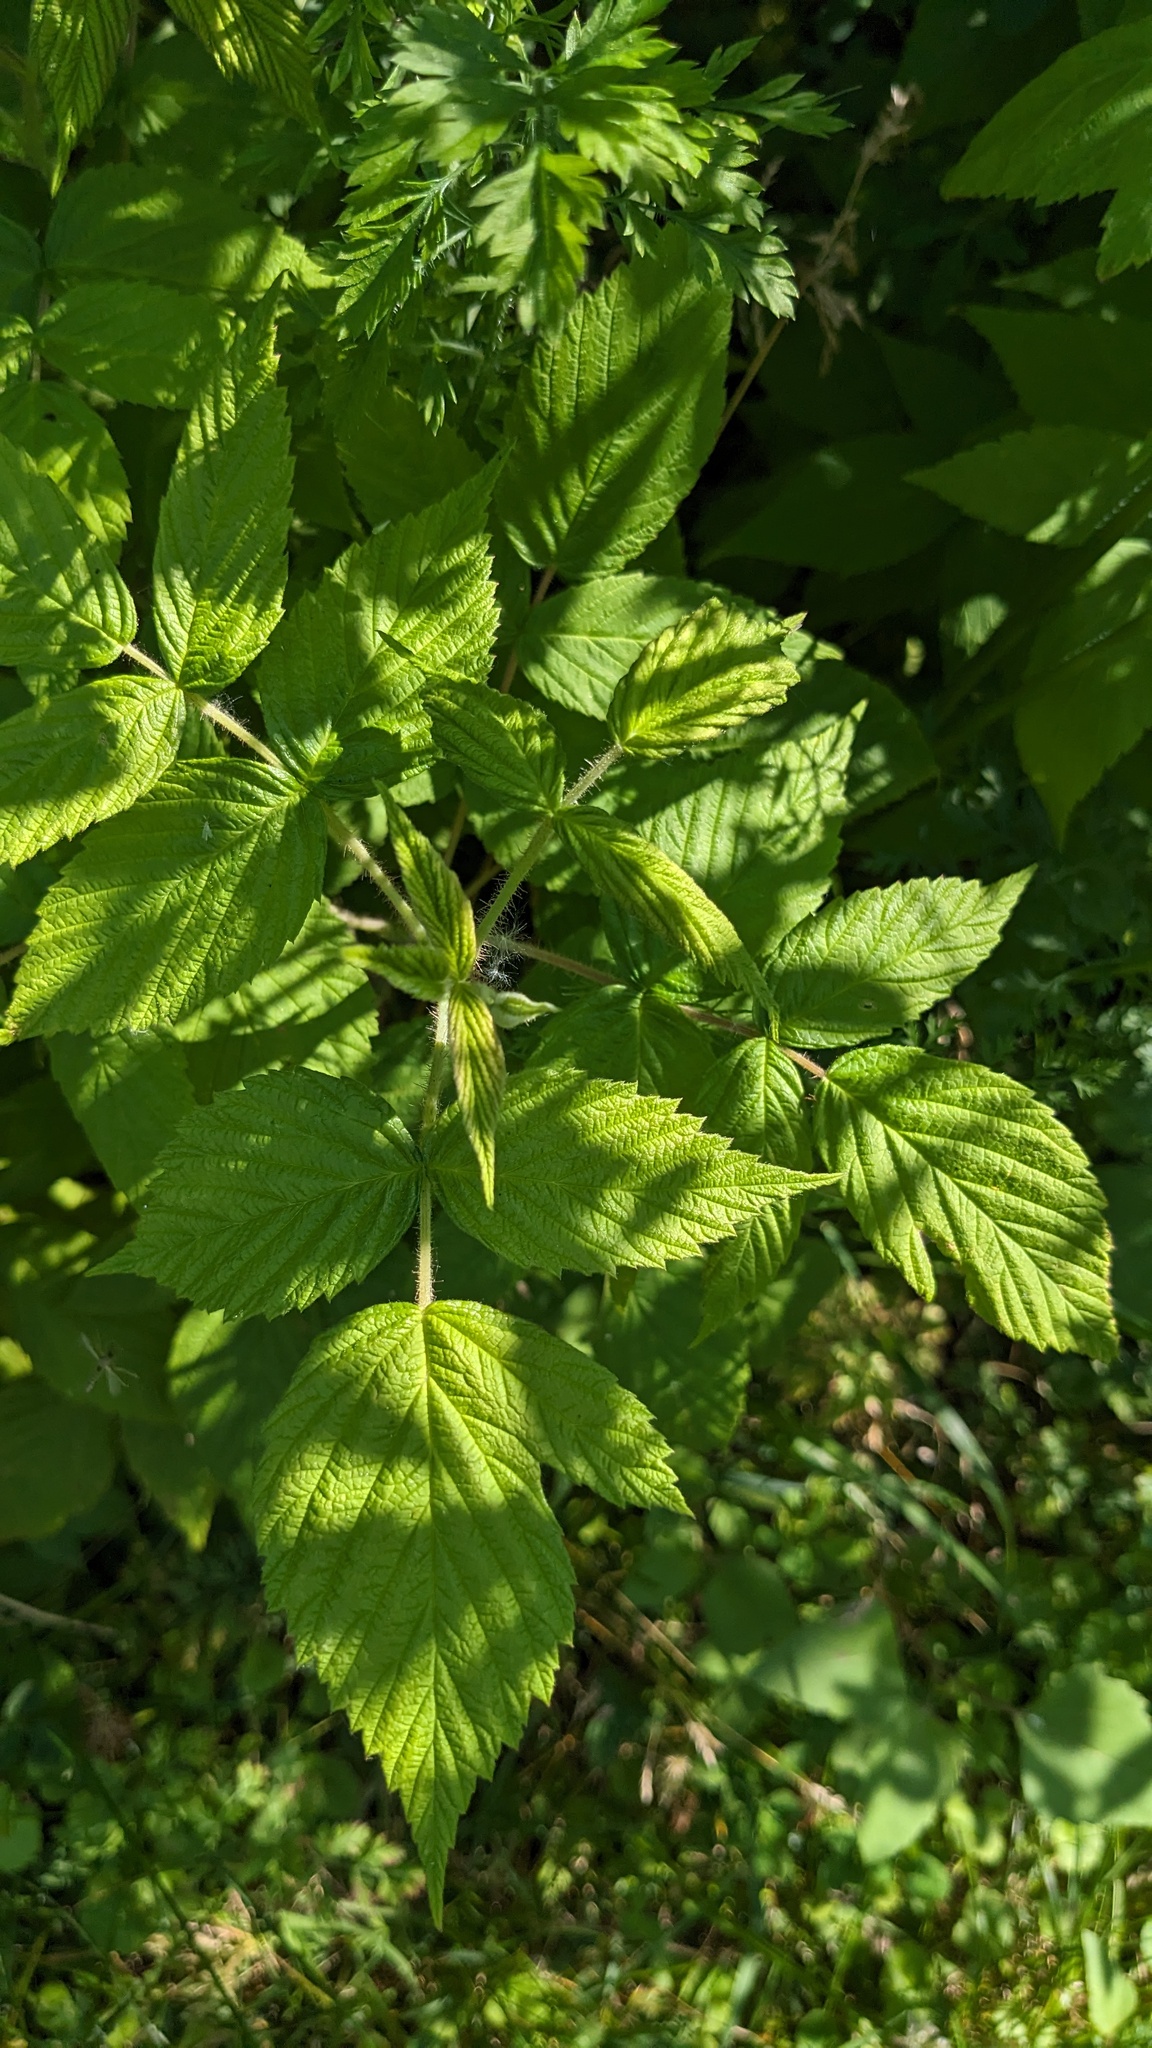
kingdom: Plantae
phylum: Tracheophyta
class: Magnoliopsida
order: Rosales
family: Rosaceae
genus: Rubus
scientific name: Rubus idaeus
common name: Raspberry
